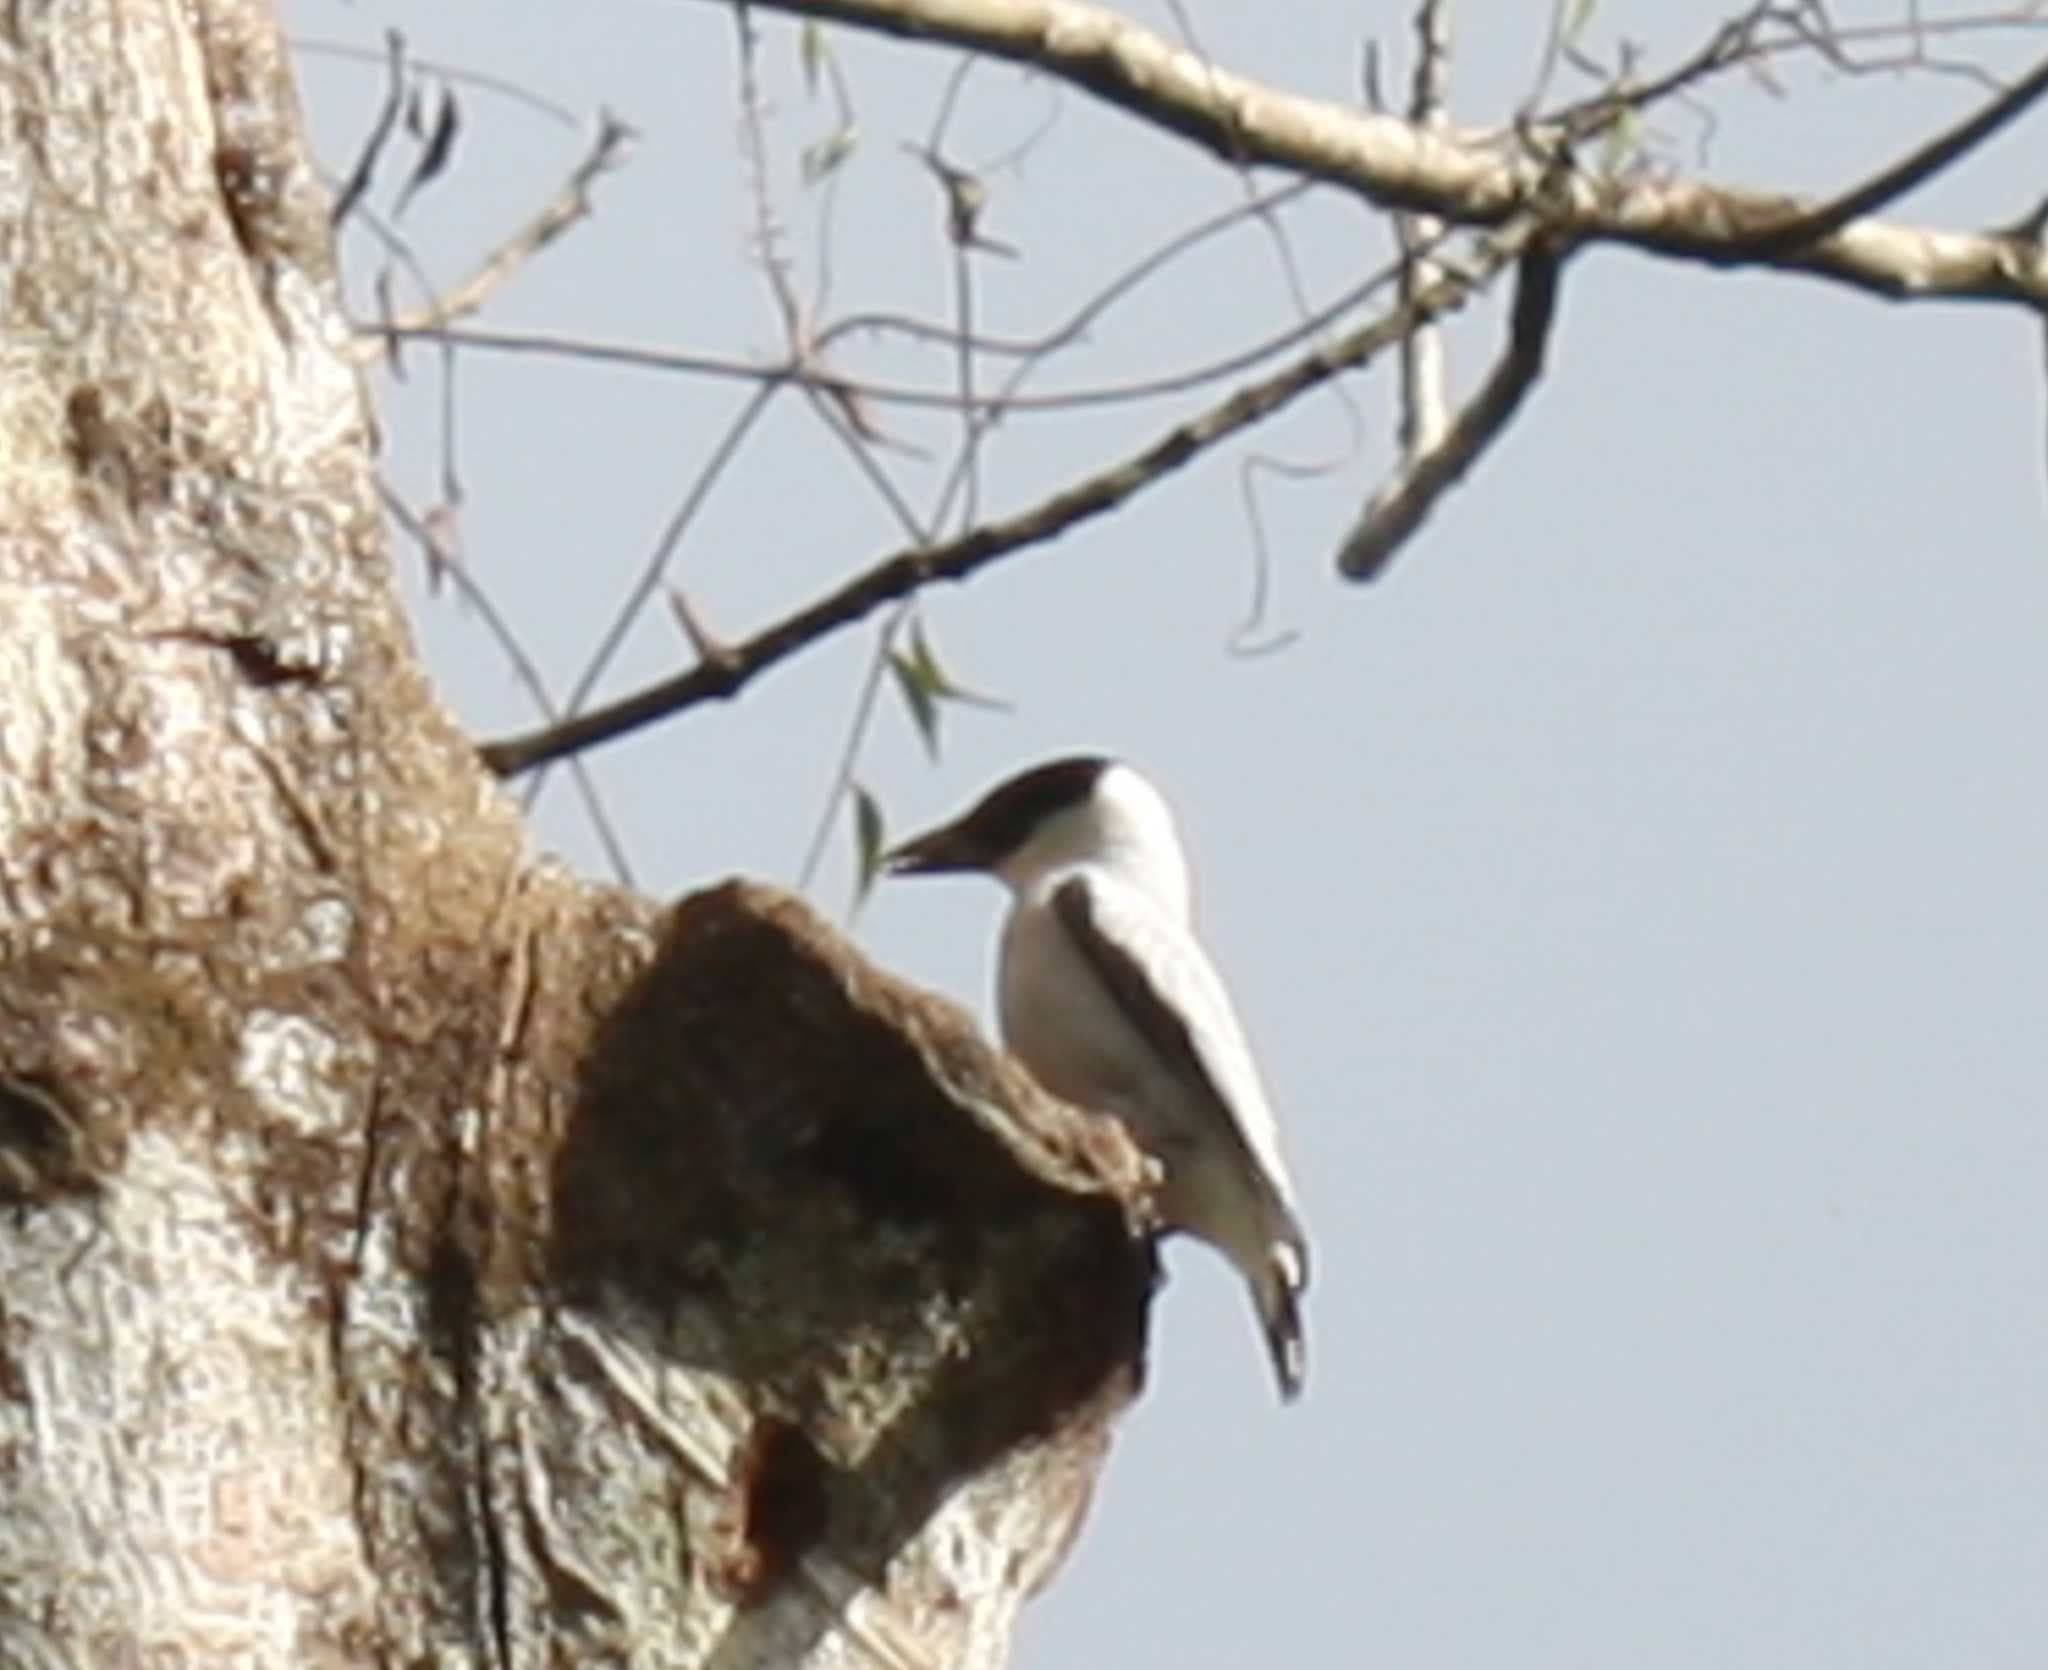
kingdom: Animalia
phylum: Chordata
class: Aves
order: Passeriformes
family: Cotingidae
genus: Tityra
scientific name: Tityra inquisitor
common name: Black-crowned tityra
